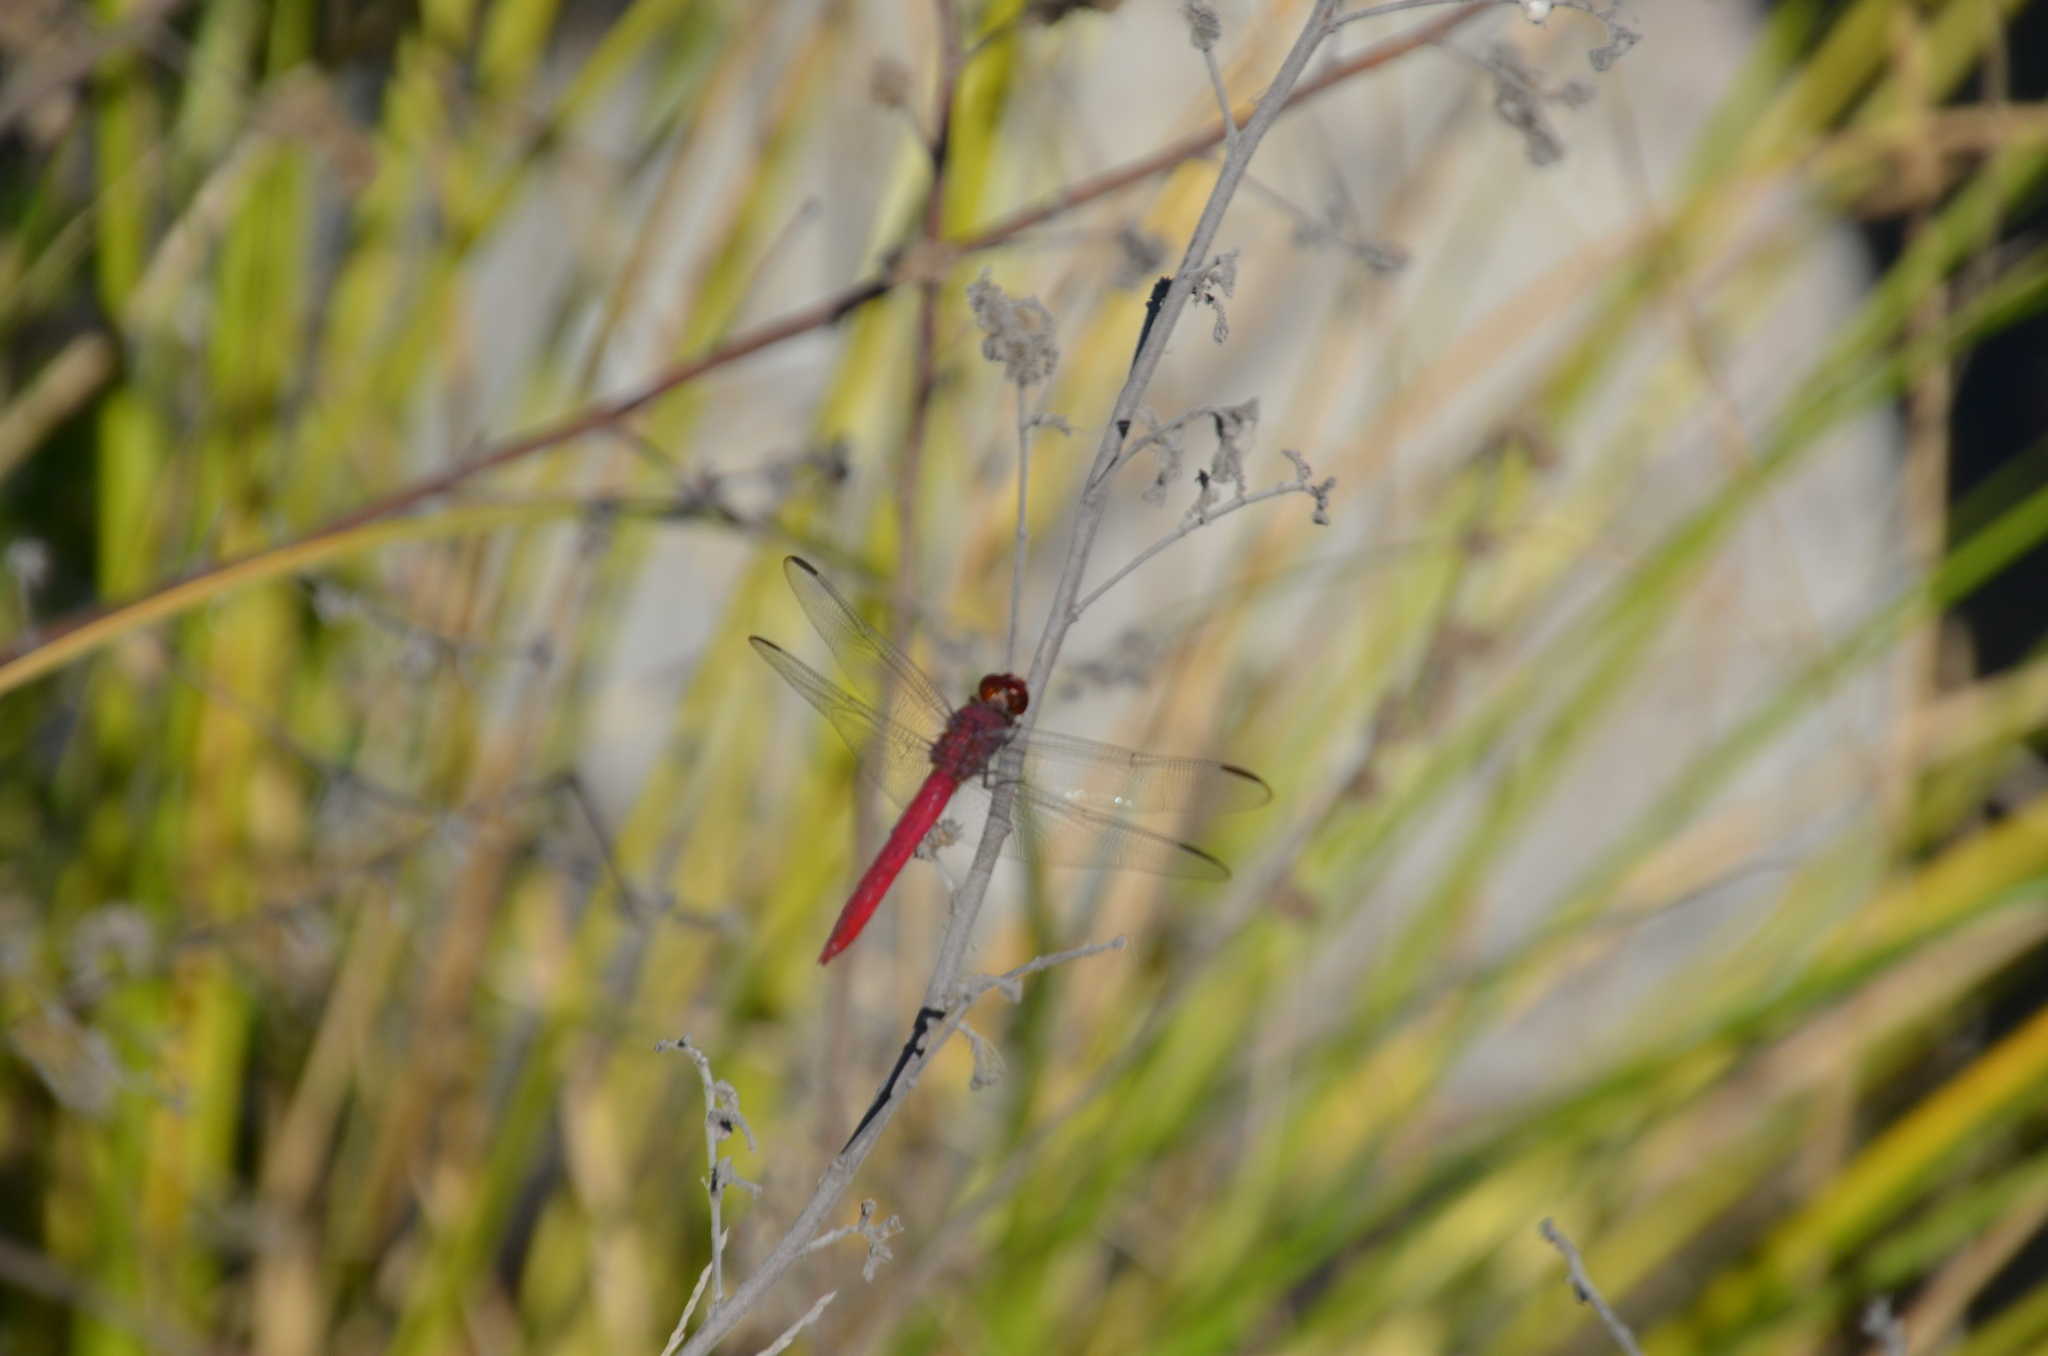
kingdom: Animalia
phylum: Arthropoda
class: Insecta
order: Odonata
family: Libellulidae
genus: Orthemis
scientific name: Orthemis discolor
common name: Carmine skimmer
